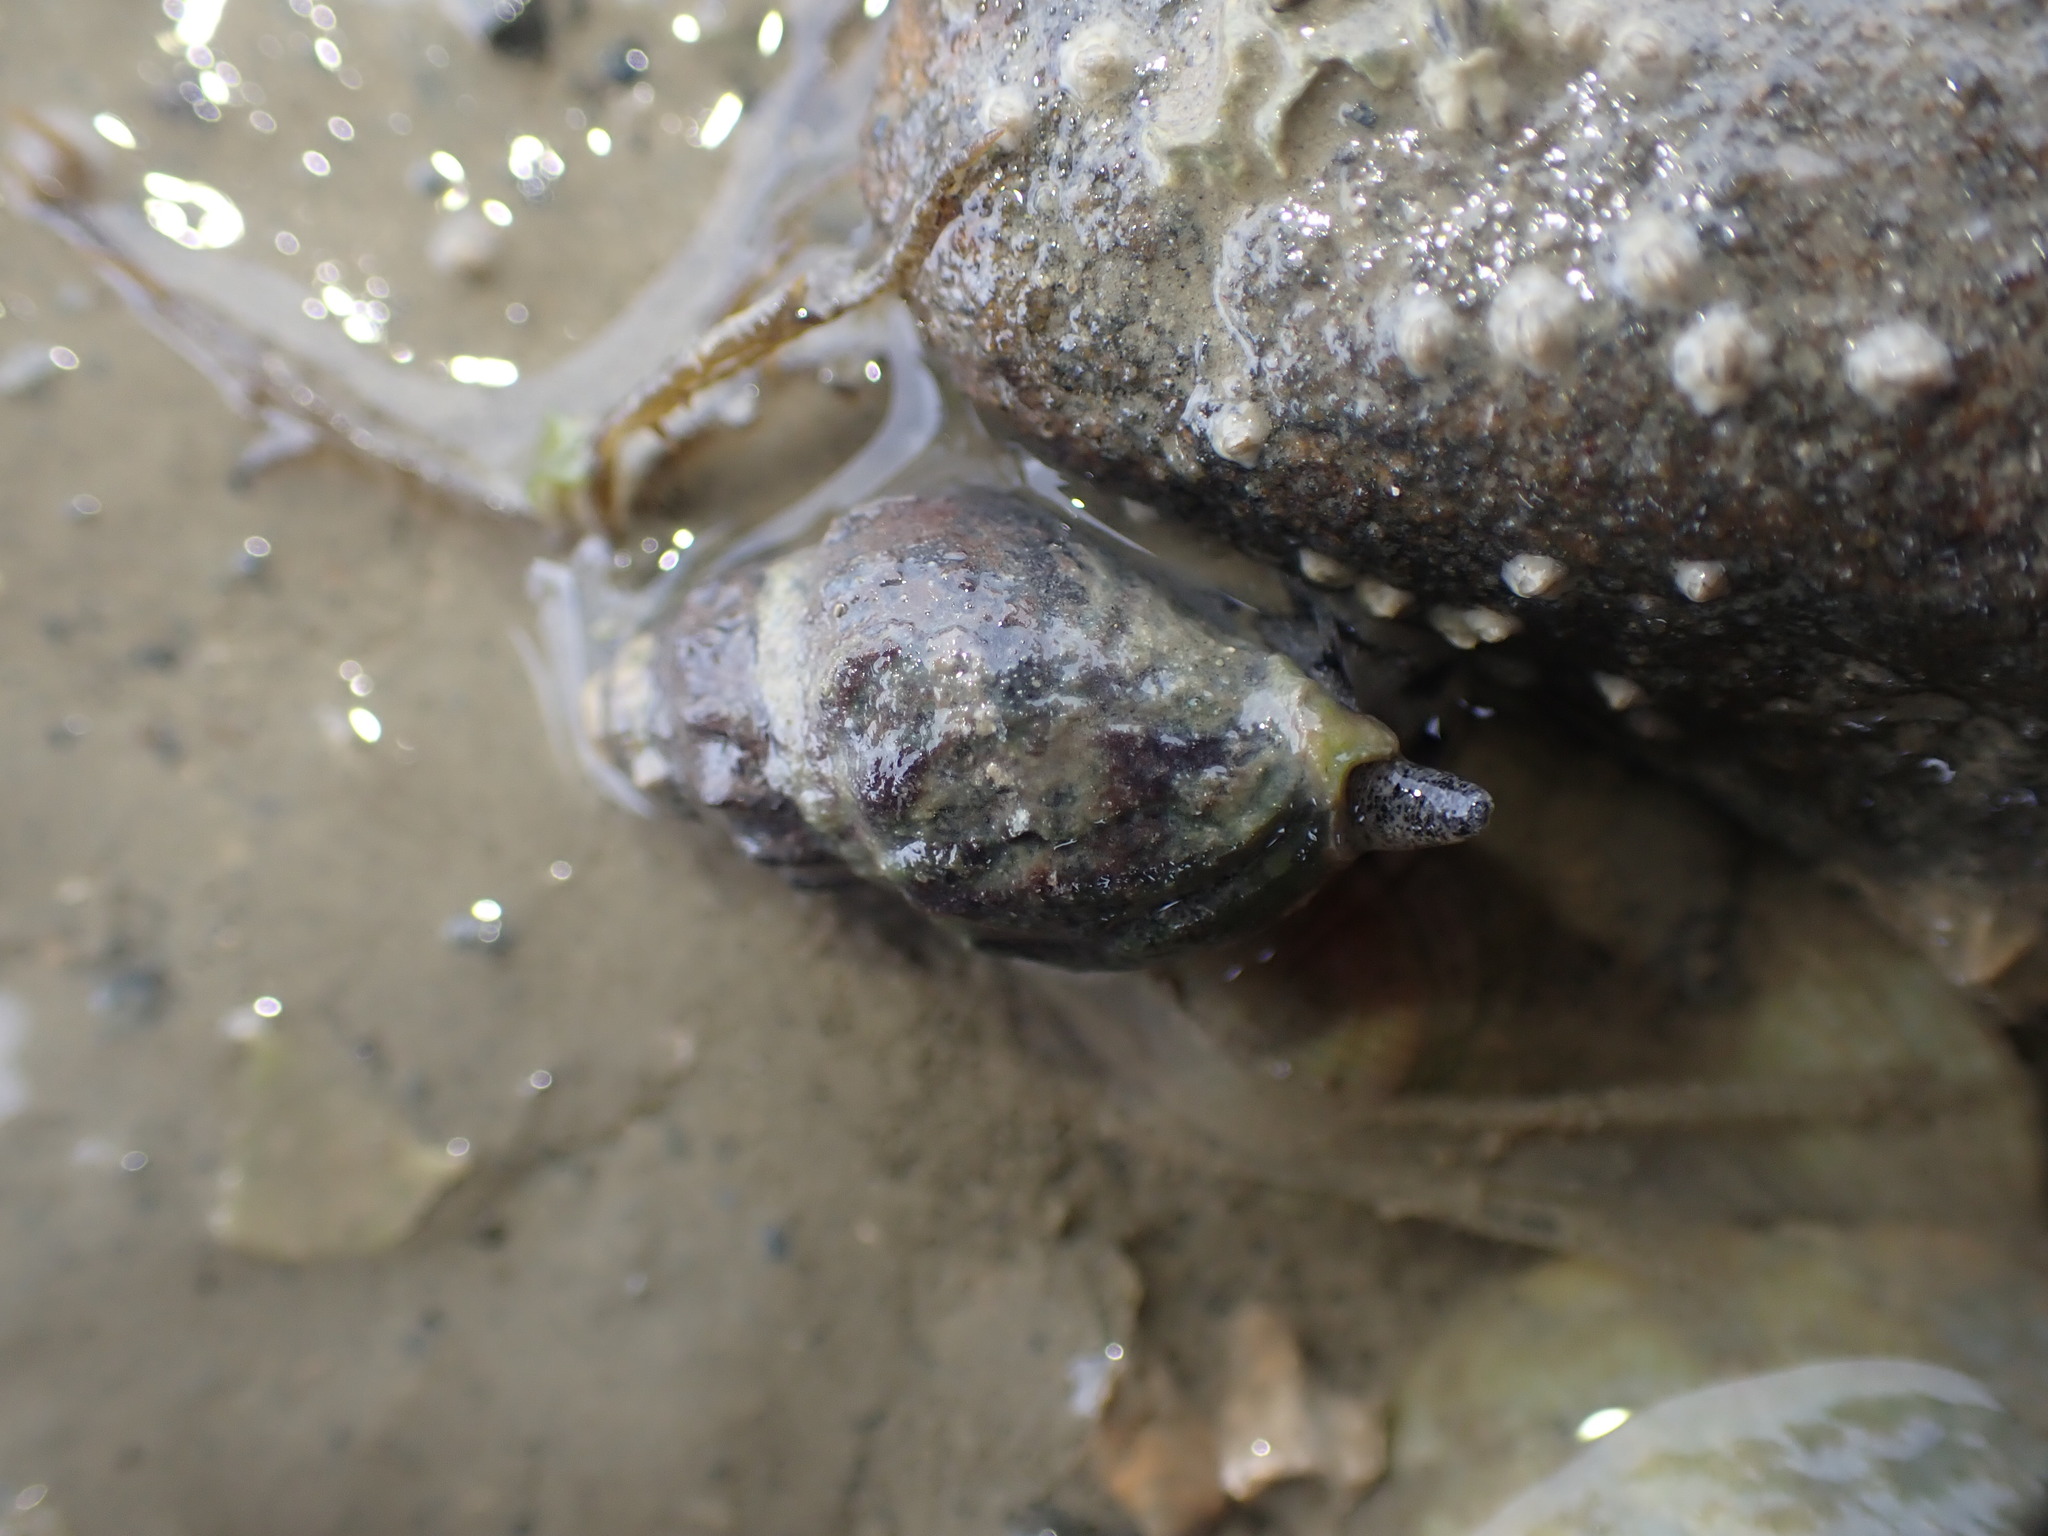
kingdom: Animalia
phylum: Mollusca
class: Gastropoda
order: Neogastropoda
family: Cominellidae
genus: Cominella
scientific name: Cominella glandiformis
